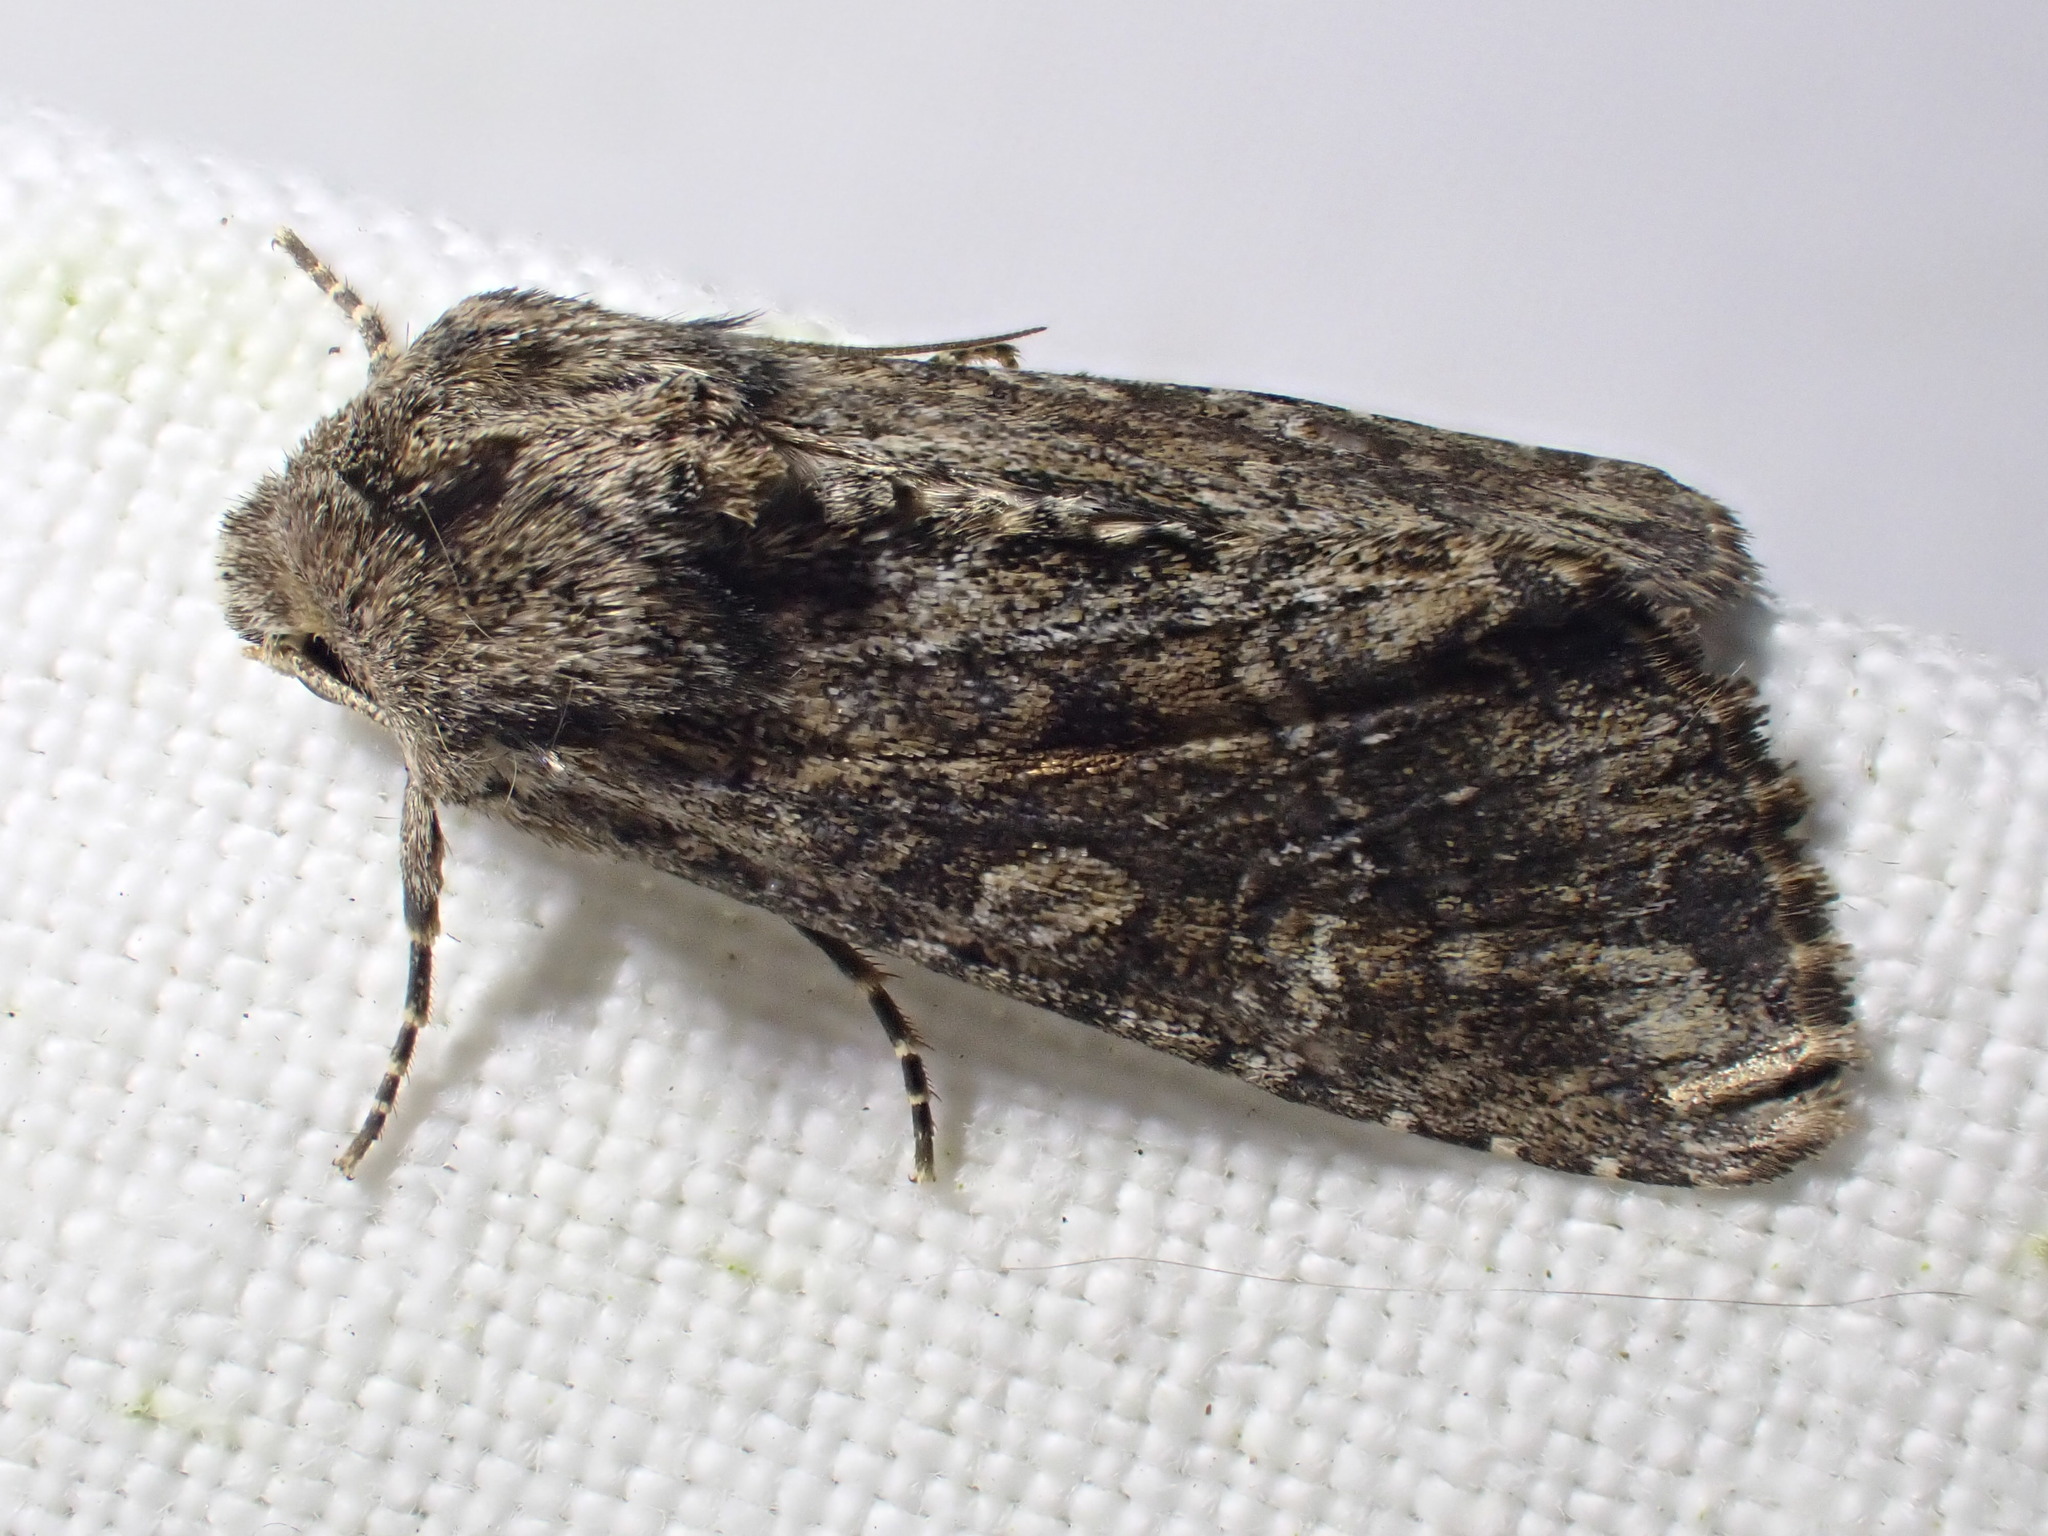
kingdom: Animalia
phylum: Arthropoda
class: Insecta
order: Lepidoptera
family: Noctuidae
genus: Apamea
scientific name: Apamea anceps
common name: Large nutmeg
